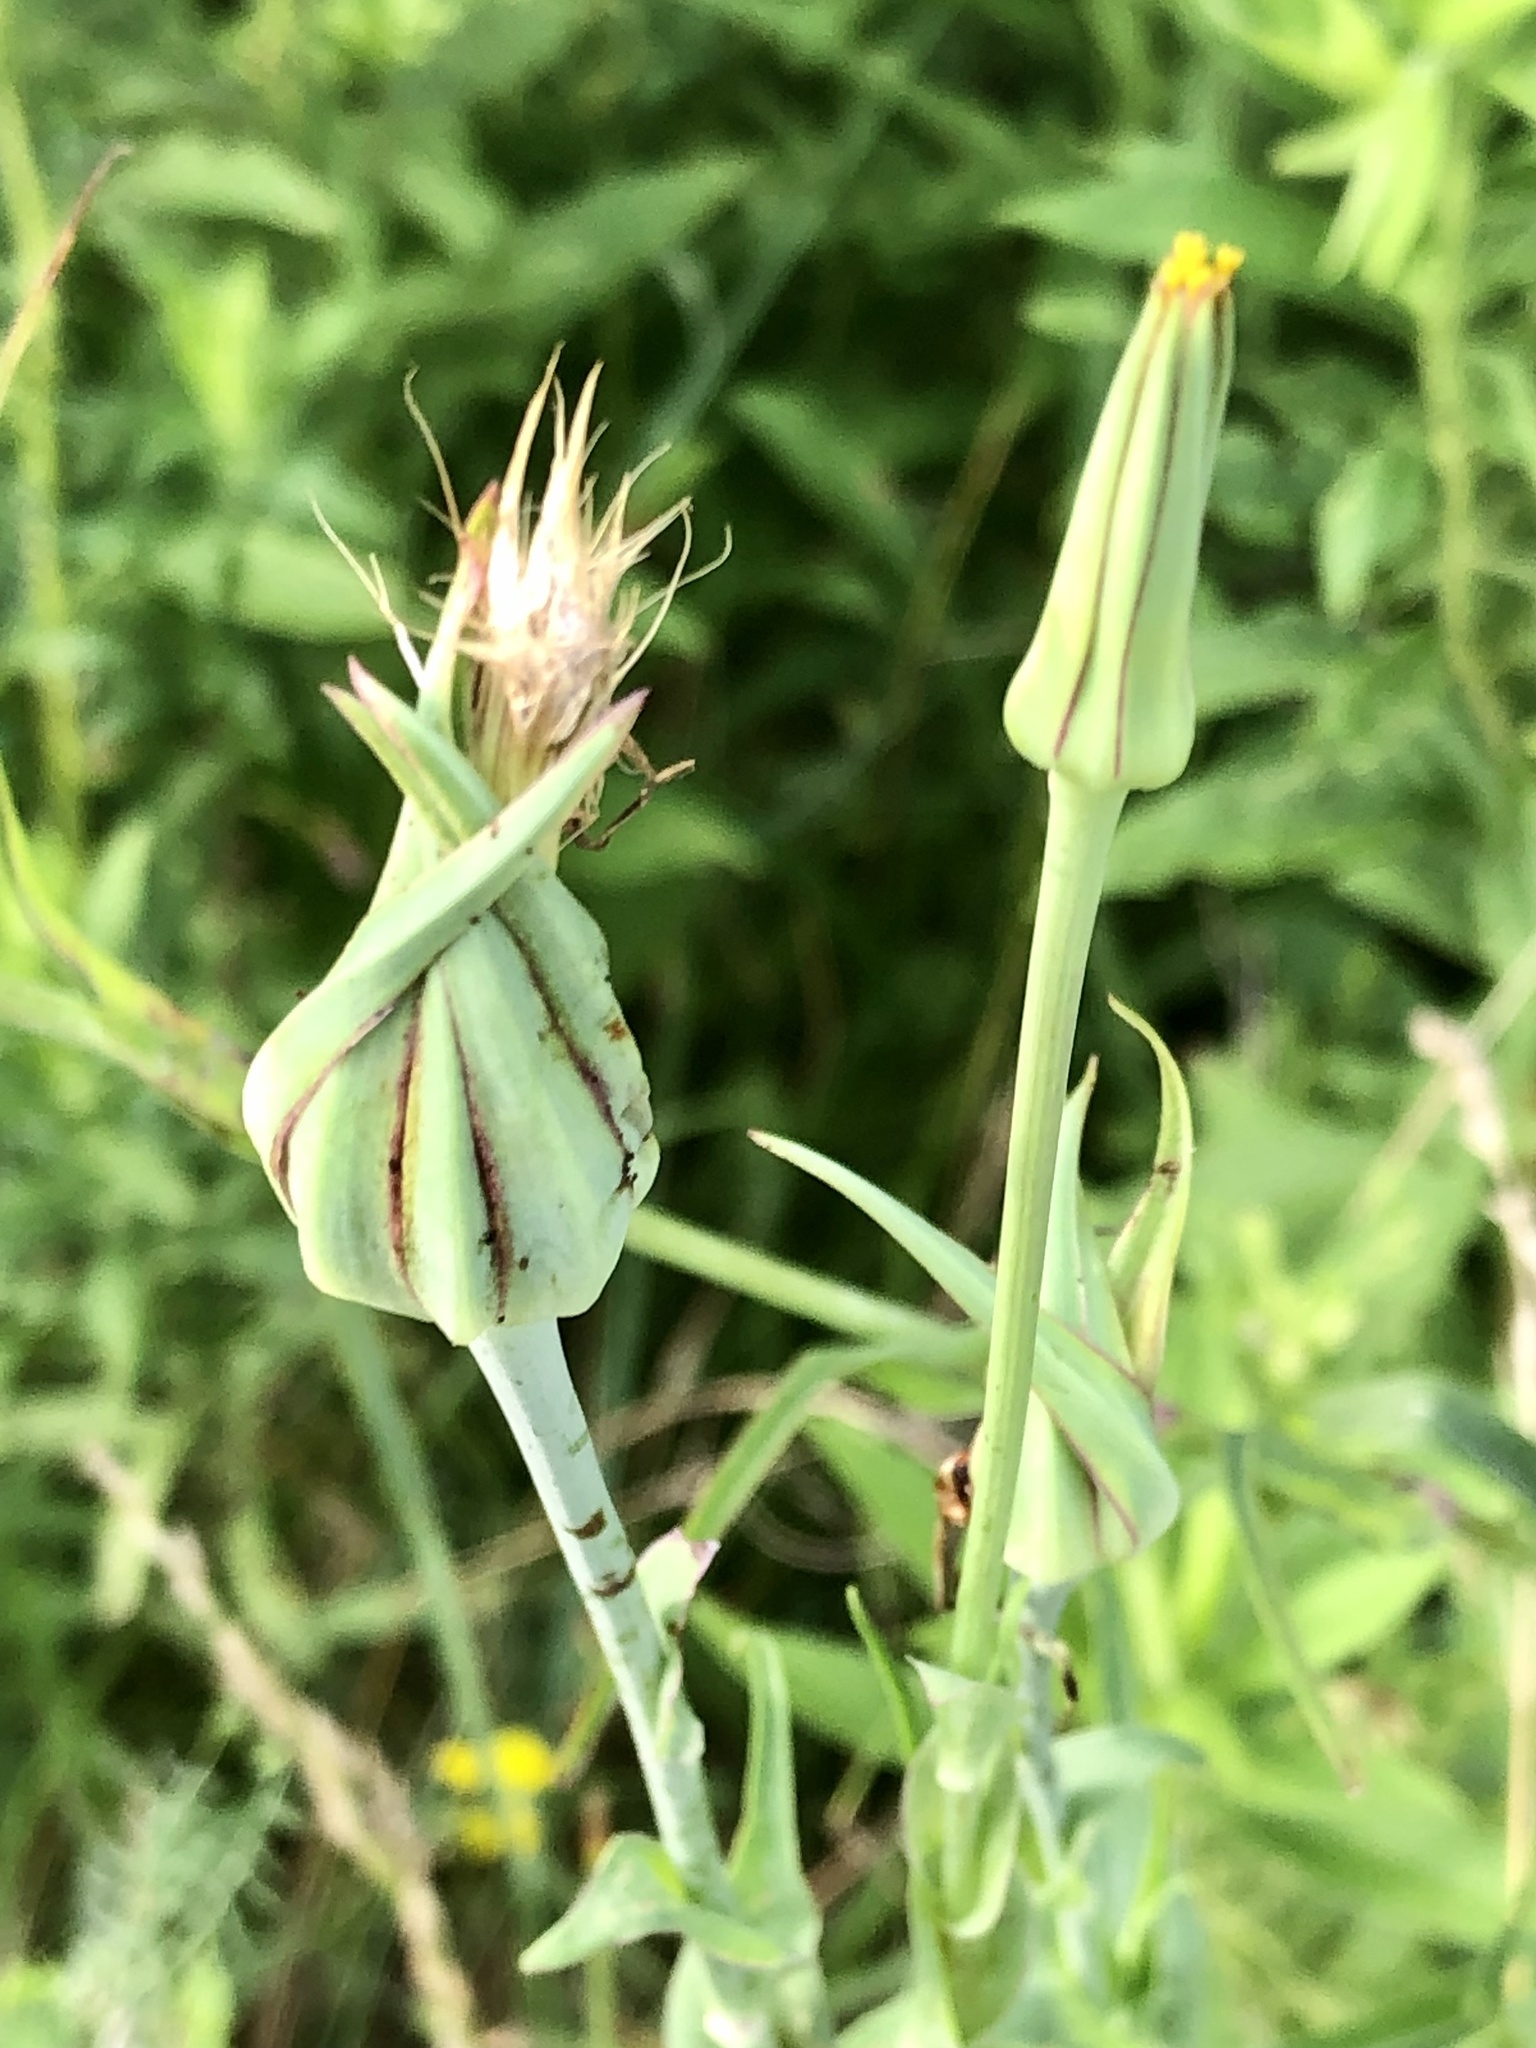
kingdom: Plantae
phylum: Tracheophyta
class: Magnoliopsida
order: Asterales
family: Asteraceae
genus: Tragopogon
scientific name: Tragopogon pratensis
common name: Goat's-beard
